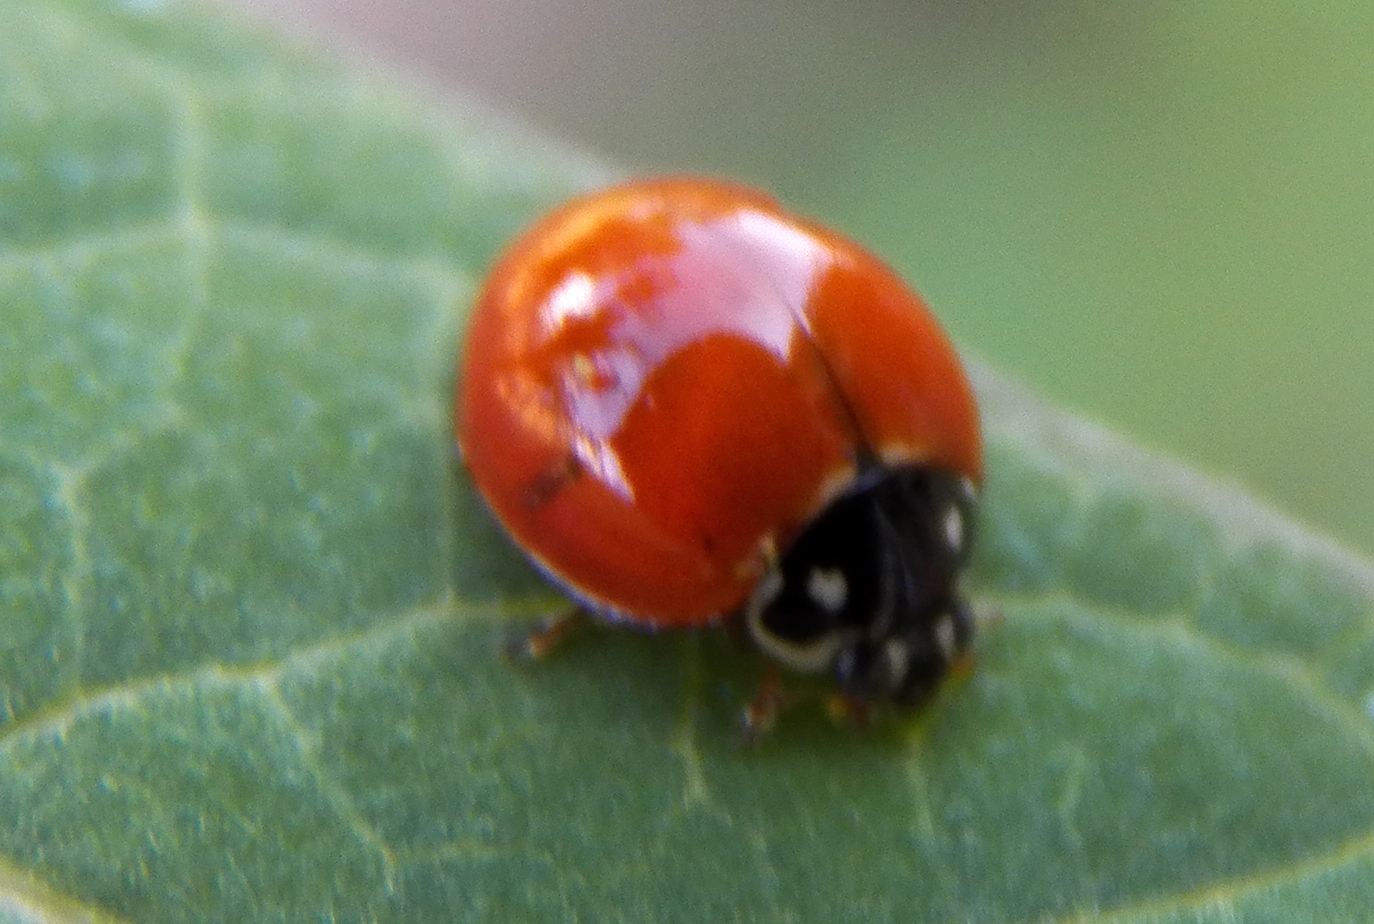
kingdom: Animalia
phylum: Arthropoda
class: Insecta
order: Coleoptera
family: Coccinellidae
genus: Cycloneda
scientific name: Cycloneda sanguinea
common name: Ladybird beetle
